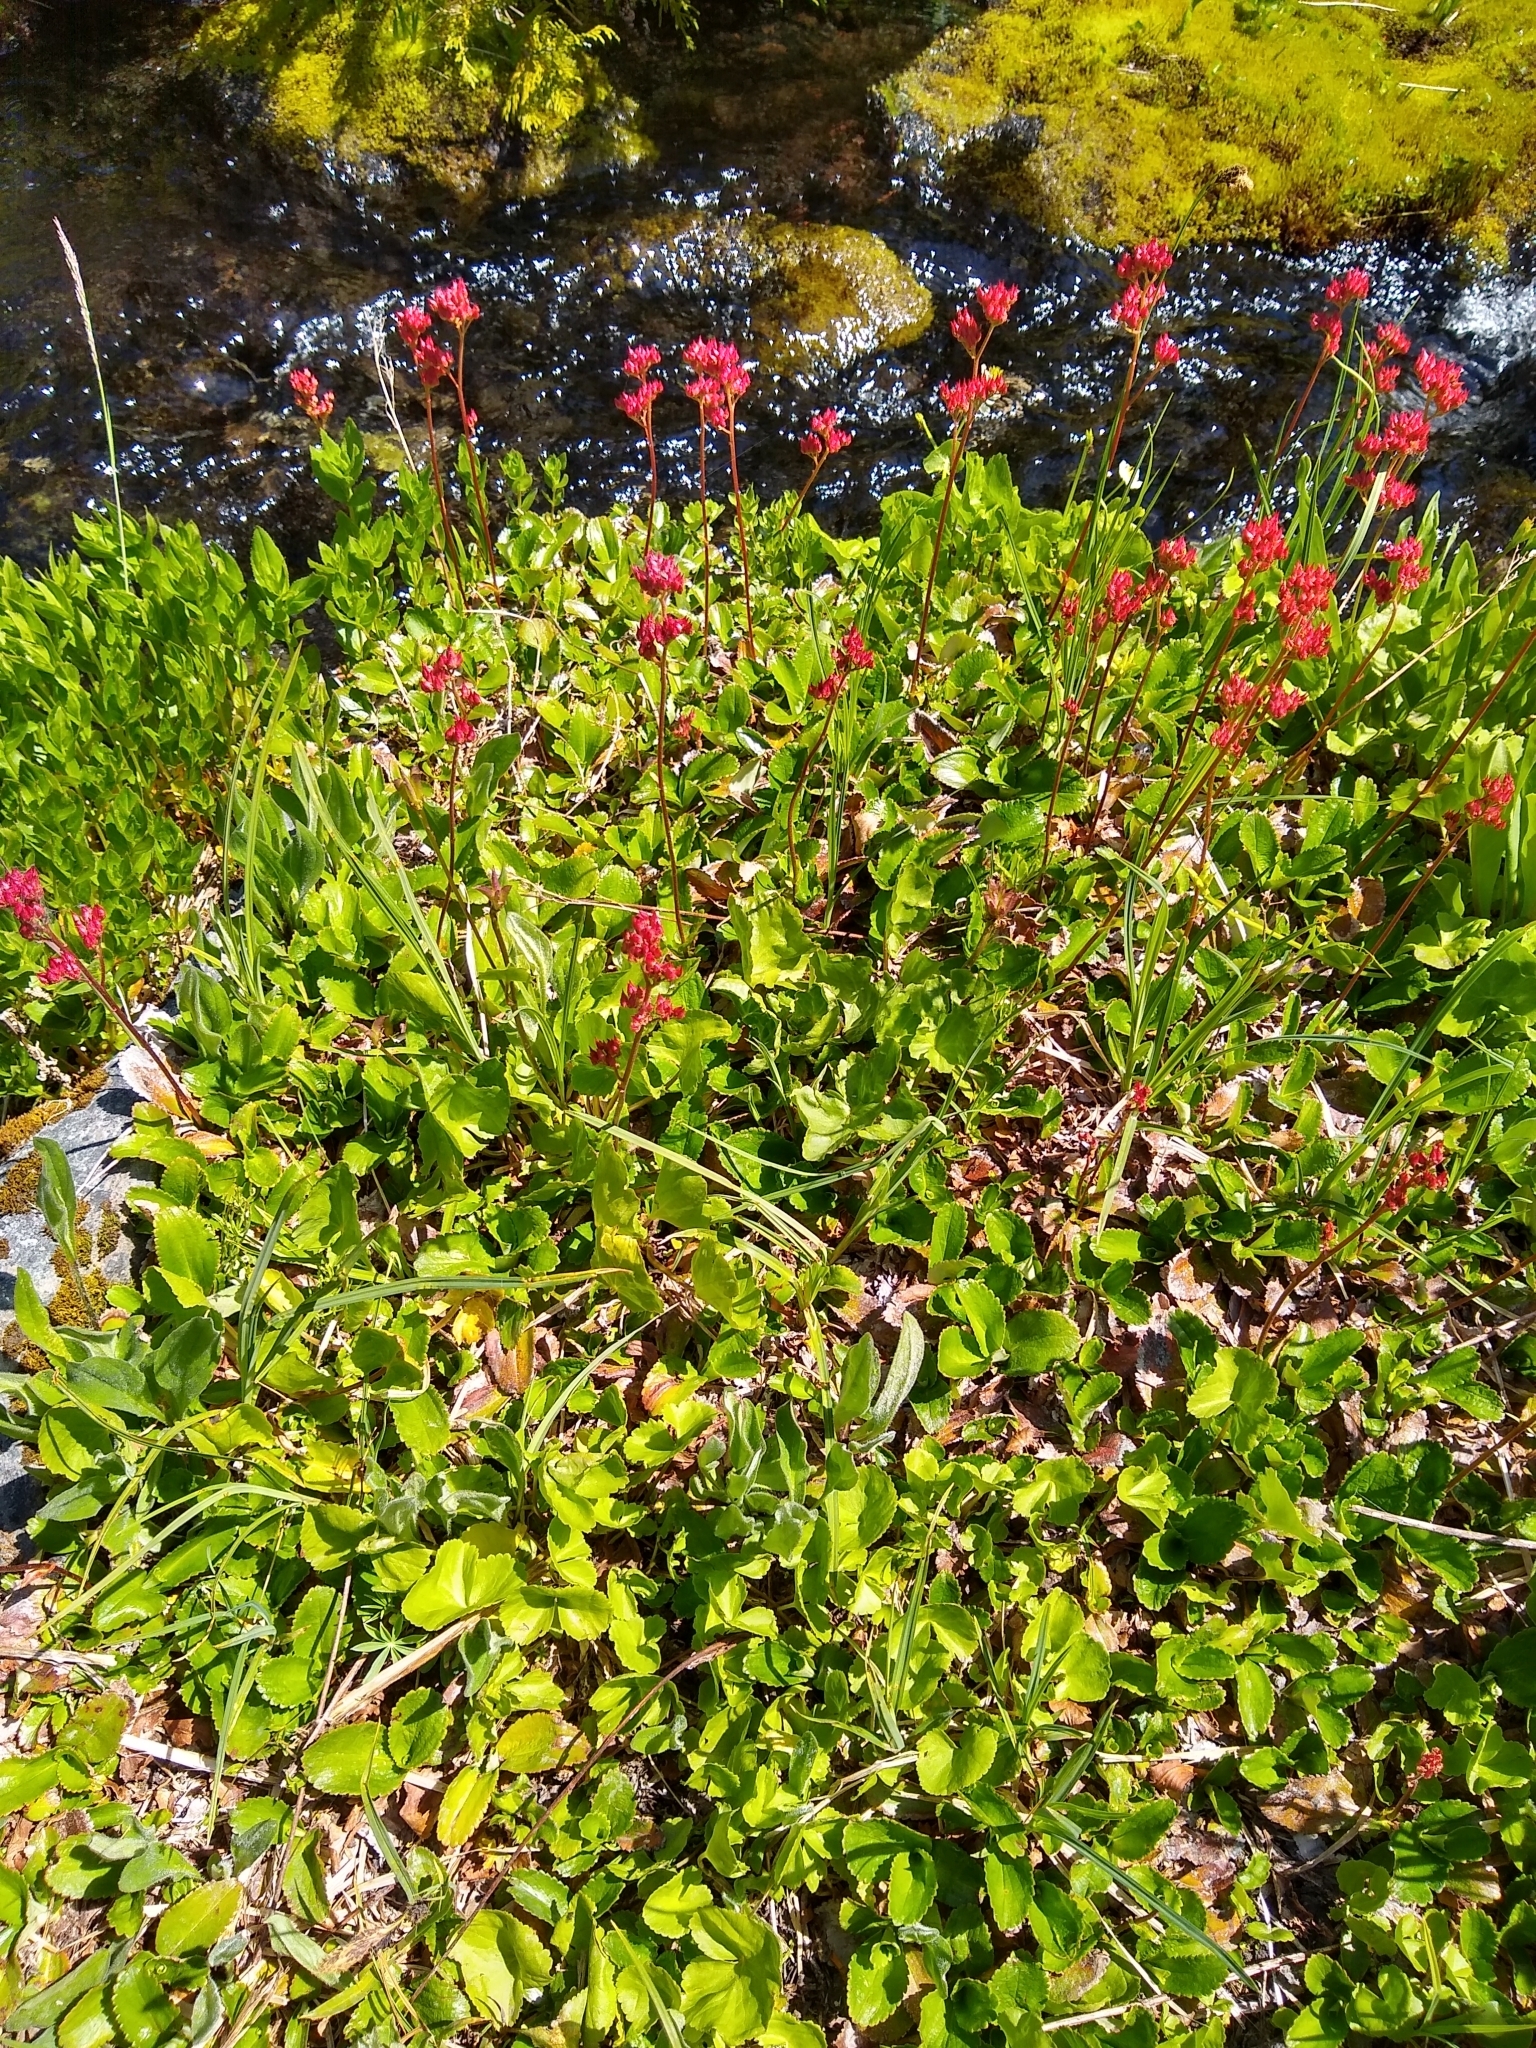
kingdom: Plantae
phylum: Tracheophyta
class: Magnoliopsida
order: Saxifragales
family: Saxifragaceae
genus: Leptarrhena
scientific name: Leptarrhena pyrolifolia
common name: Leatherleaf-saxifrage
